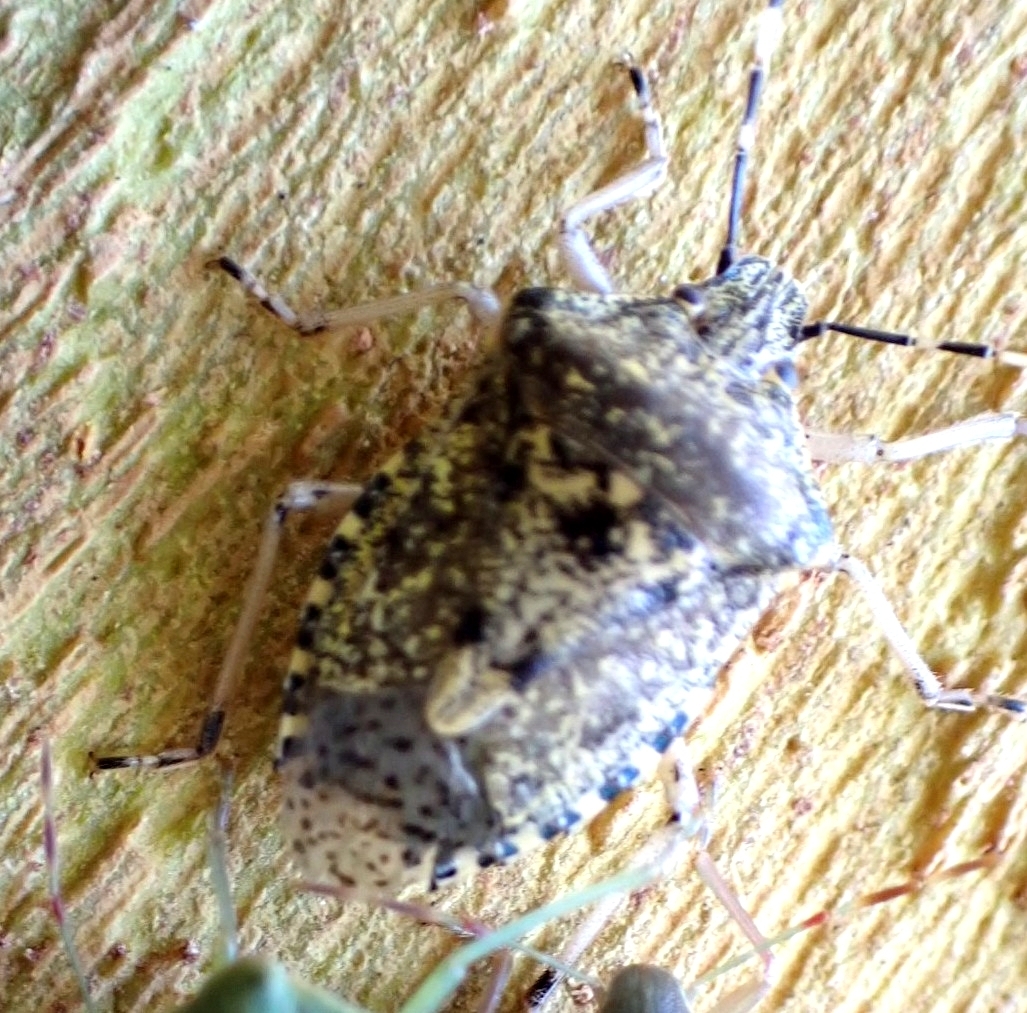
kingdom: Animalia
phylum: Arthropoda
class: Insecta
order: Hemiptera
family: Pentatomidae
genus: Rhaphigaster
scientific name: Rhaphigaster nebulosa
